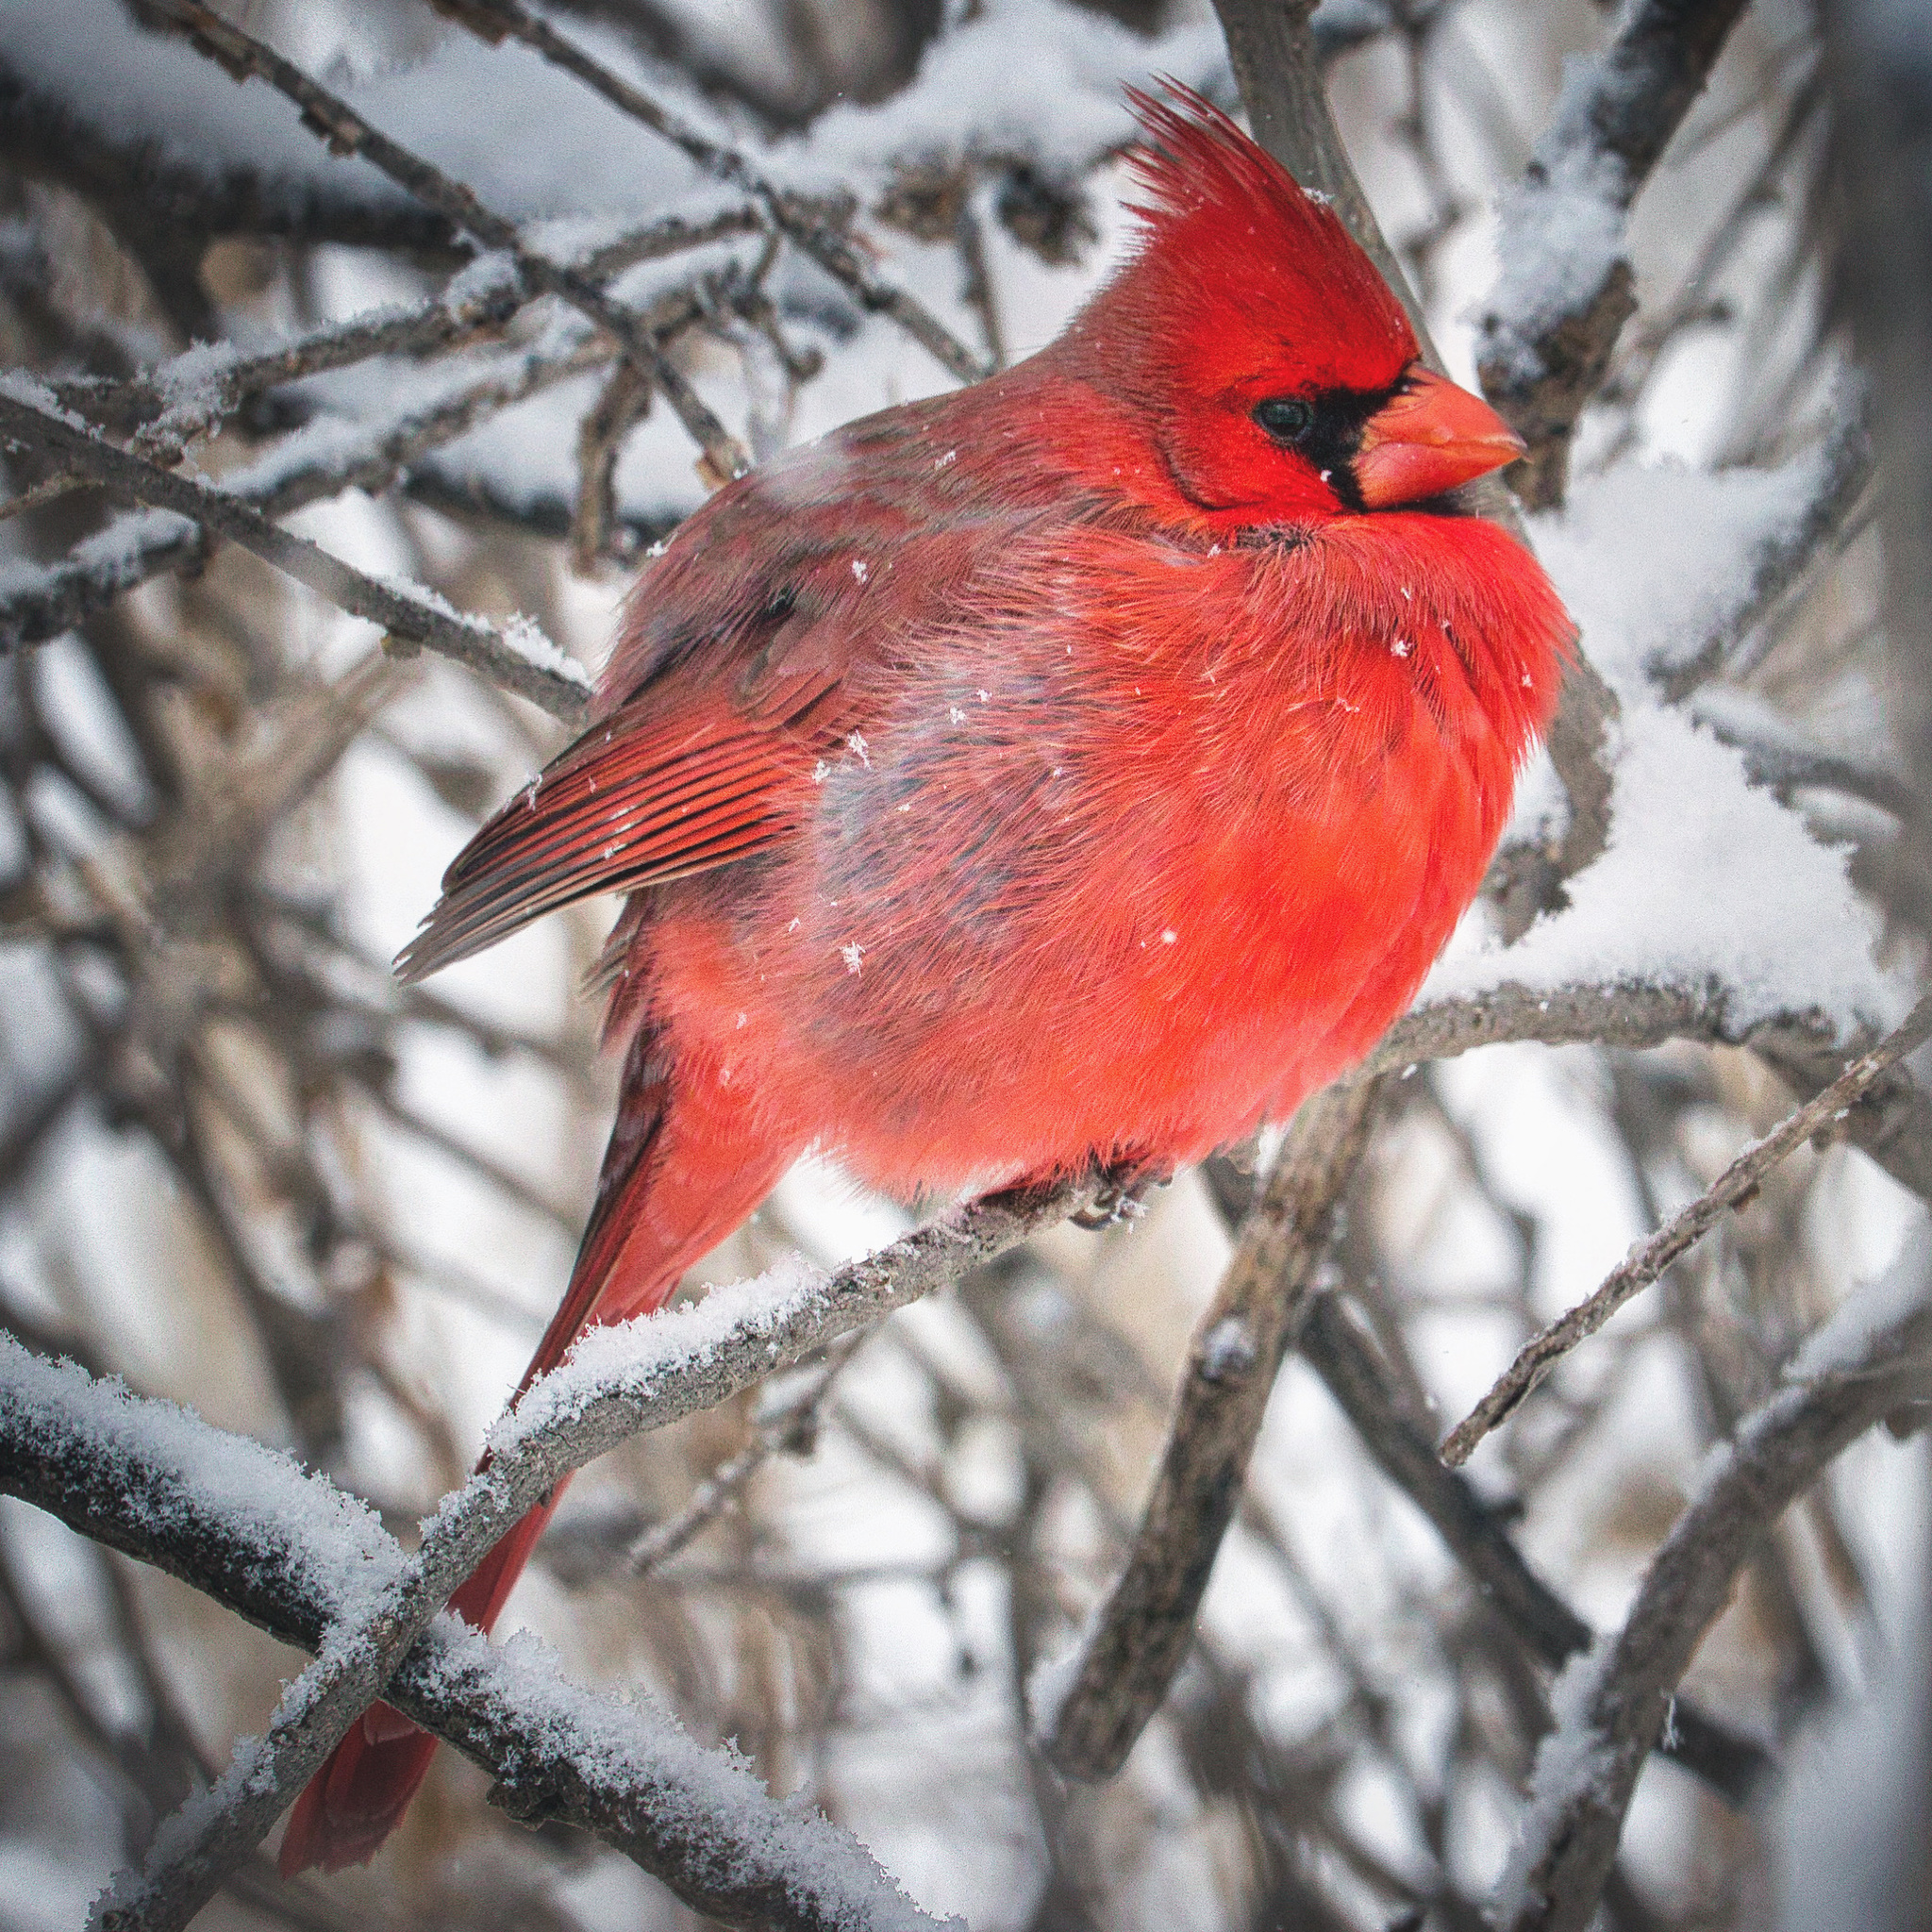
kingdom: Animalia
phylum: Chordata
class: Aves
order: Passeriformes
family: Cardinalidae
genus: Cardinalis
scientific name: Cardinalis cardinalis
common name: Northern cardinal
